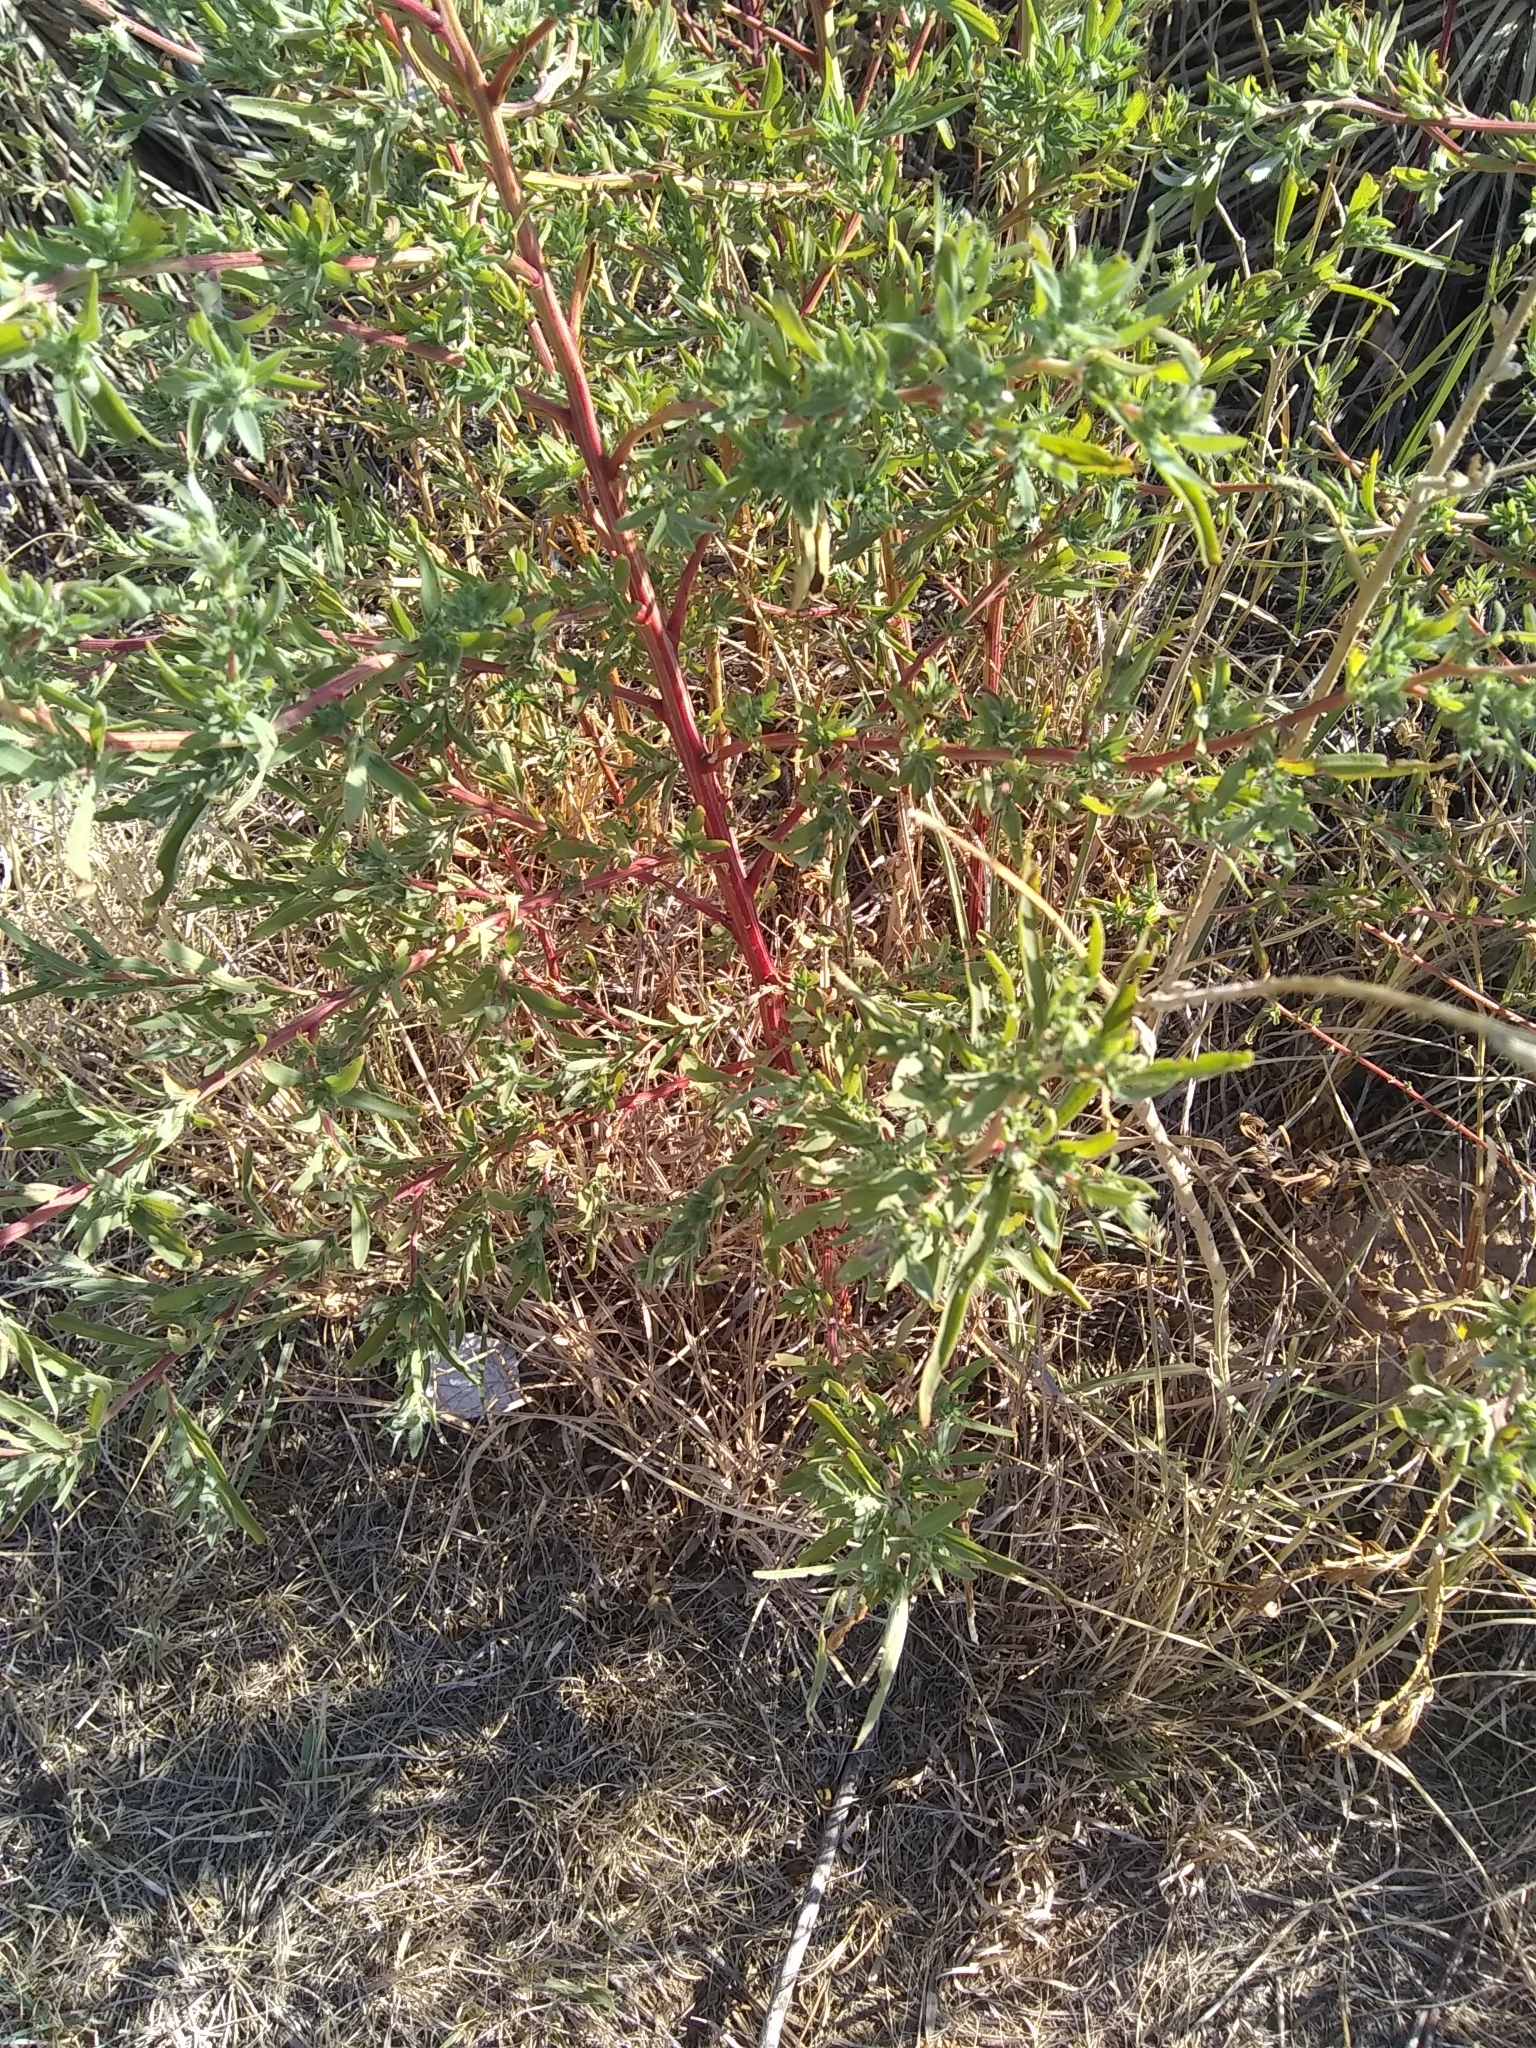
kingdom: Plantae
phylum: Tracheophyta
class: Magnoliopsida
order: Caryophyllales
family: Amaranthaceae
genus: Bassia
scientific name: Bassia scoparia
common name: Belvedere
